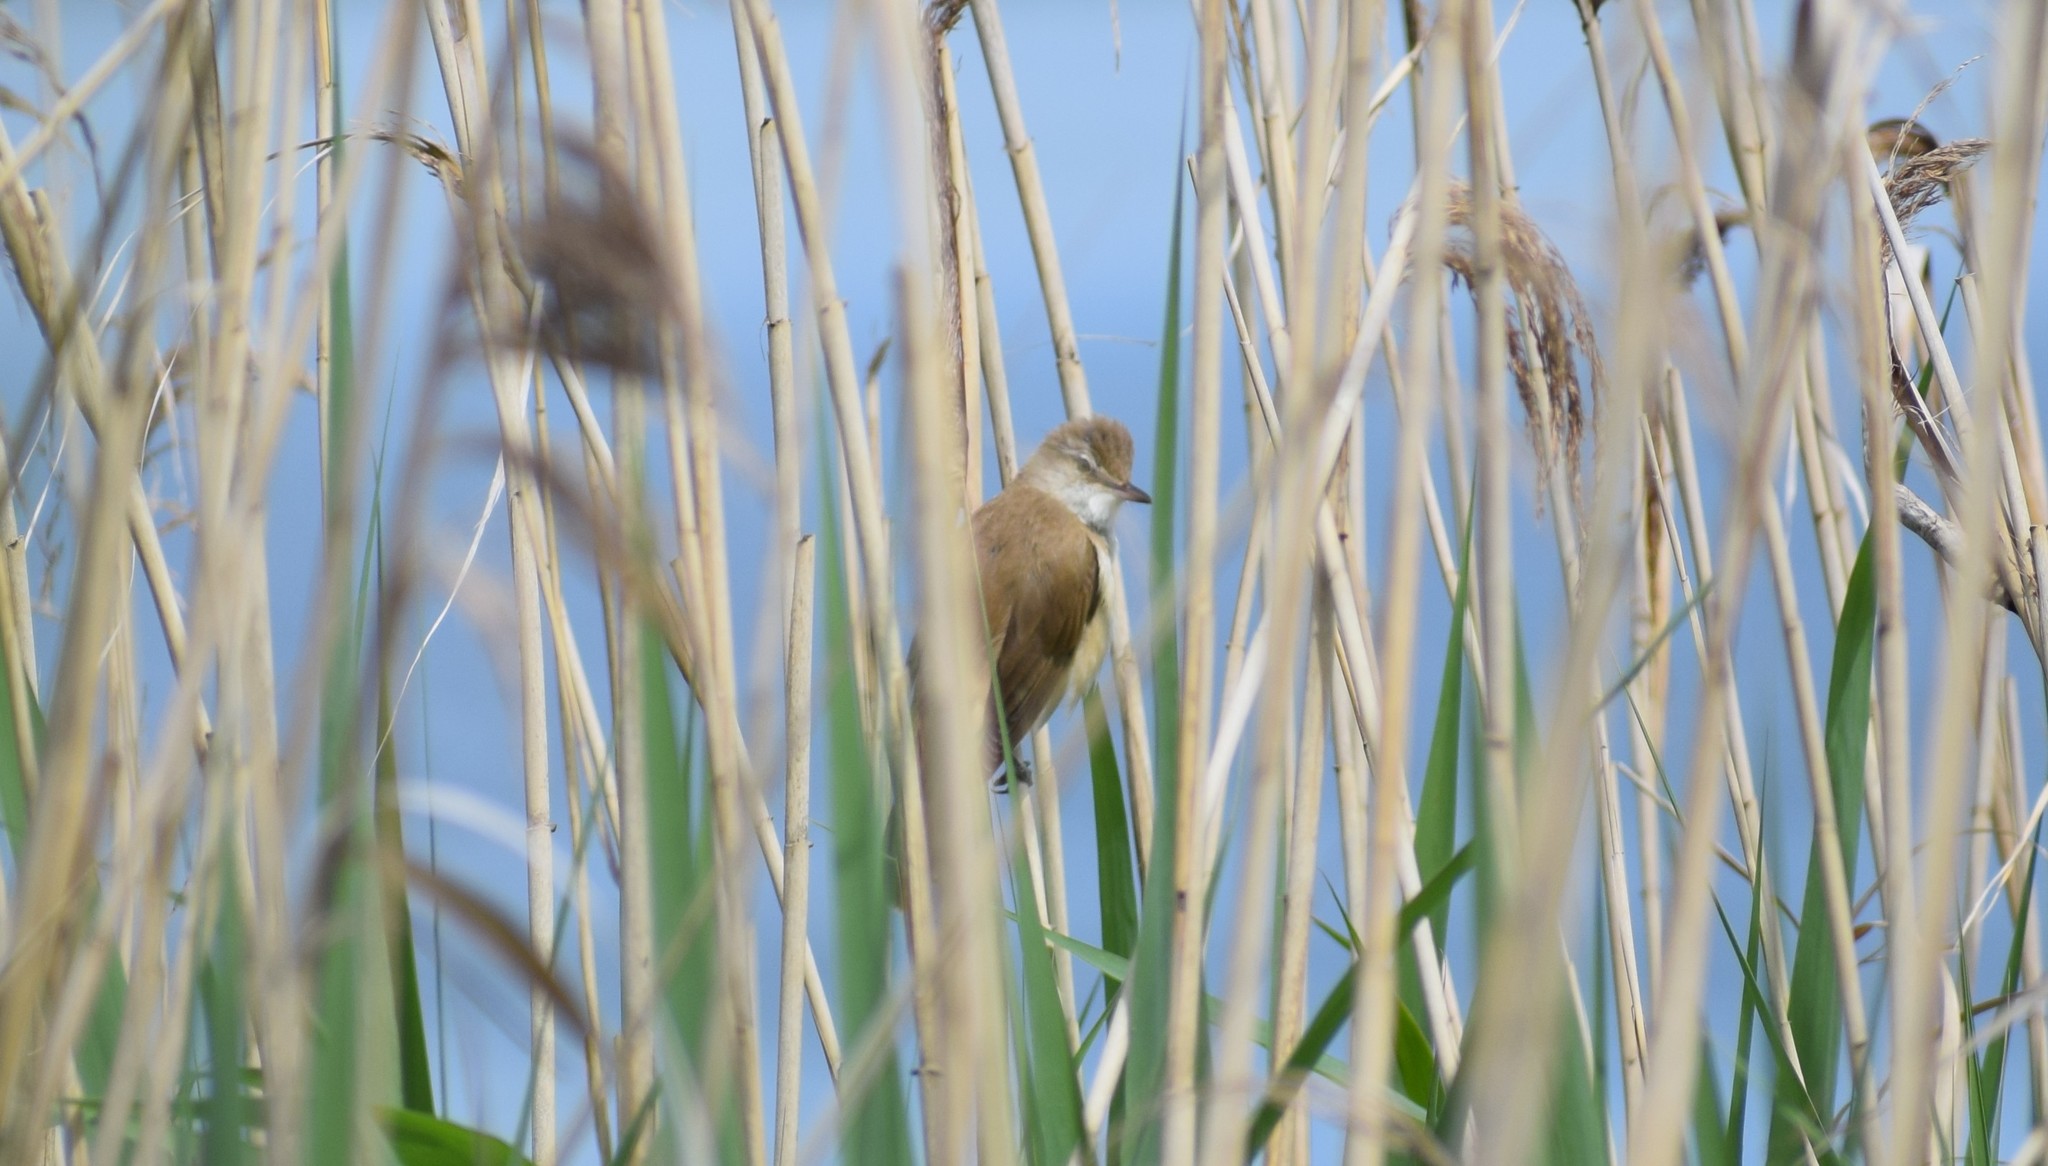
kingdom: Animalia
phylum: Chordata
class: Aves
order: Passeriformes
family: Acrocephalidae
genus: Acrocephalus
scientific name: Acrocephalus arundinaceus
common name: Great reed warbler
